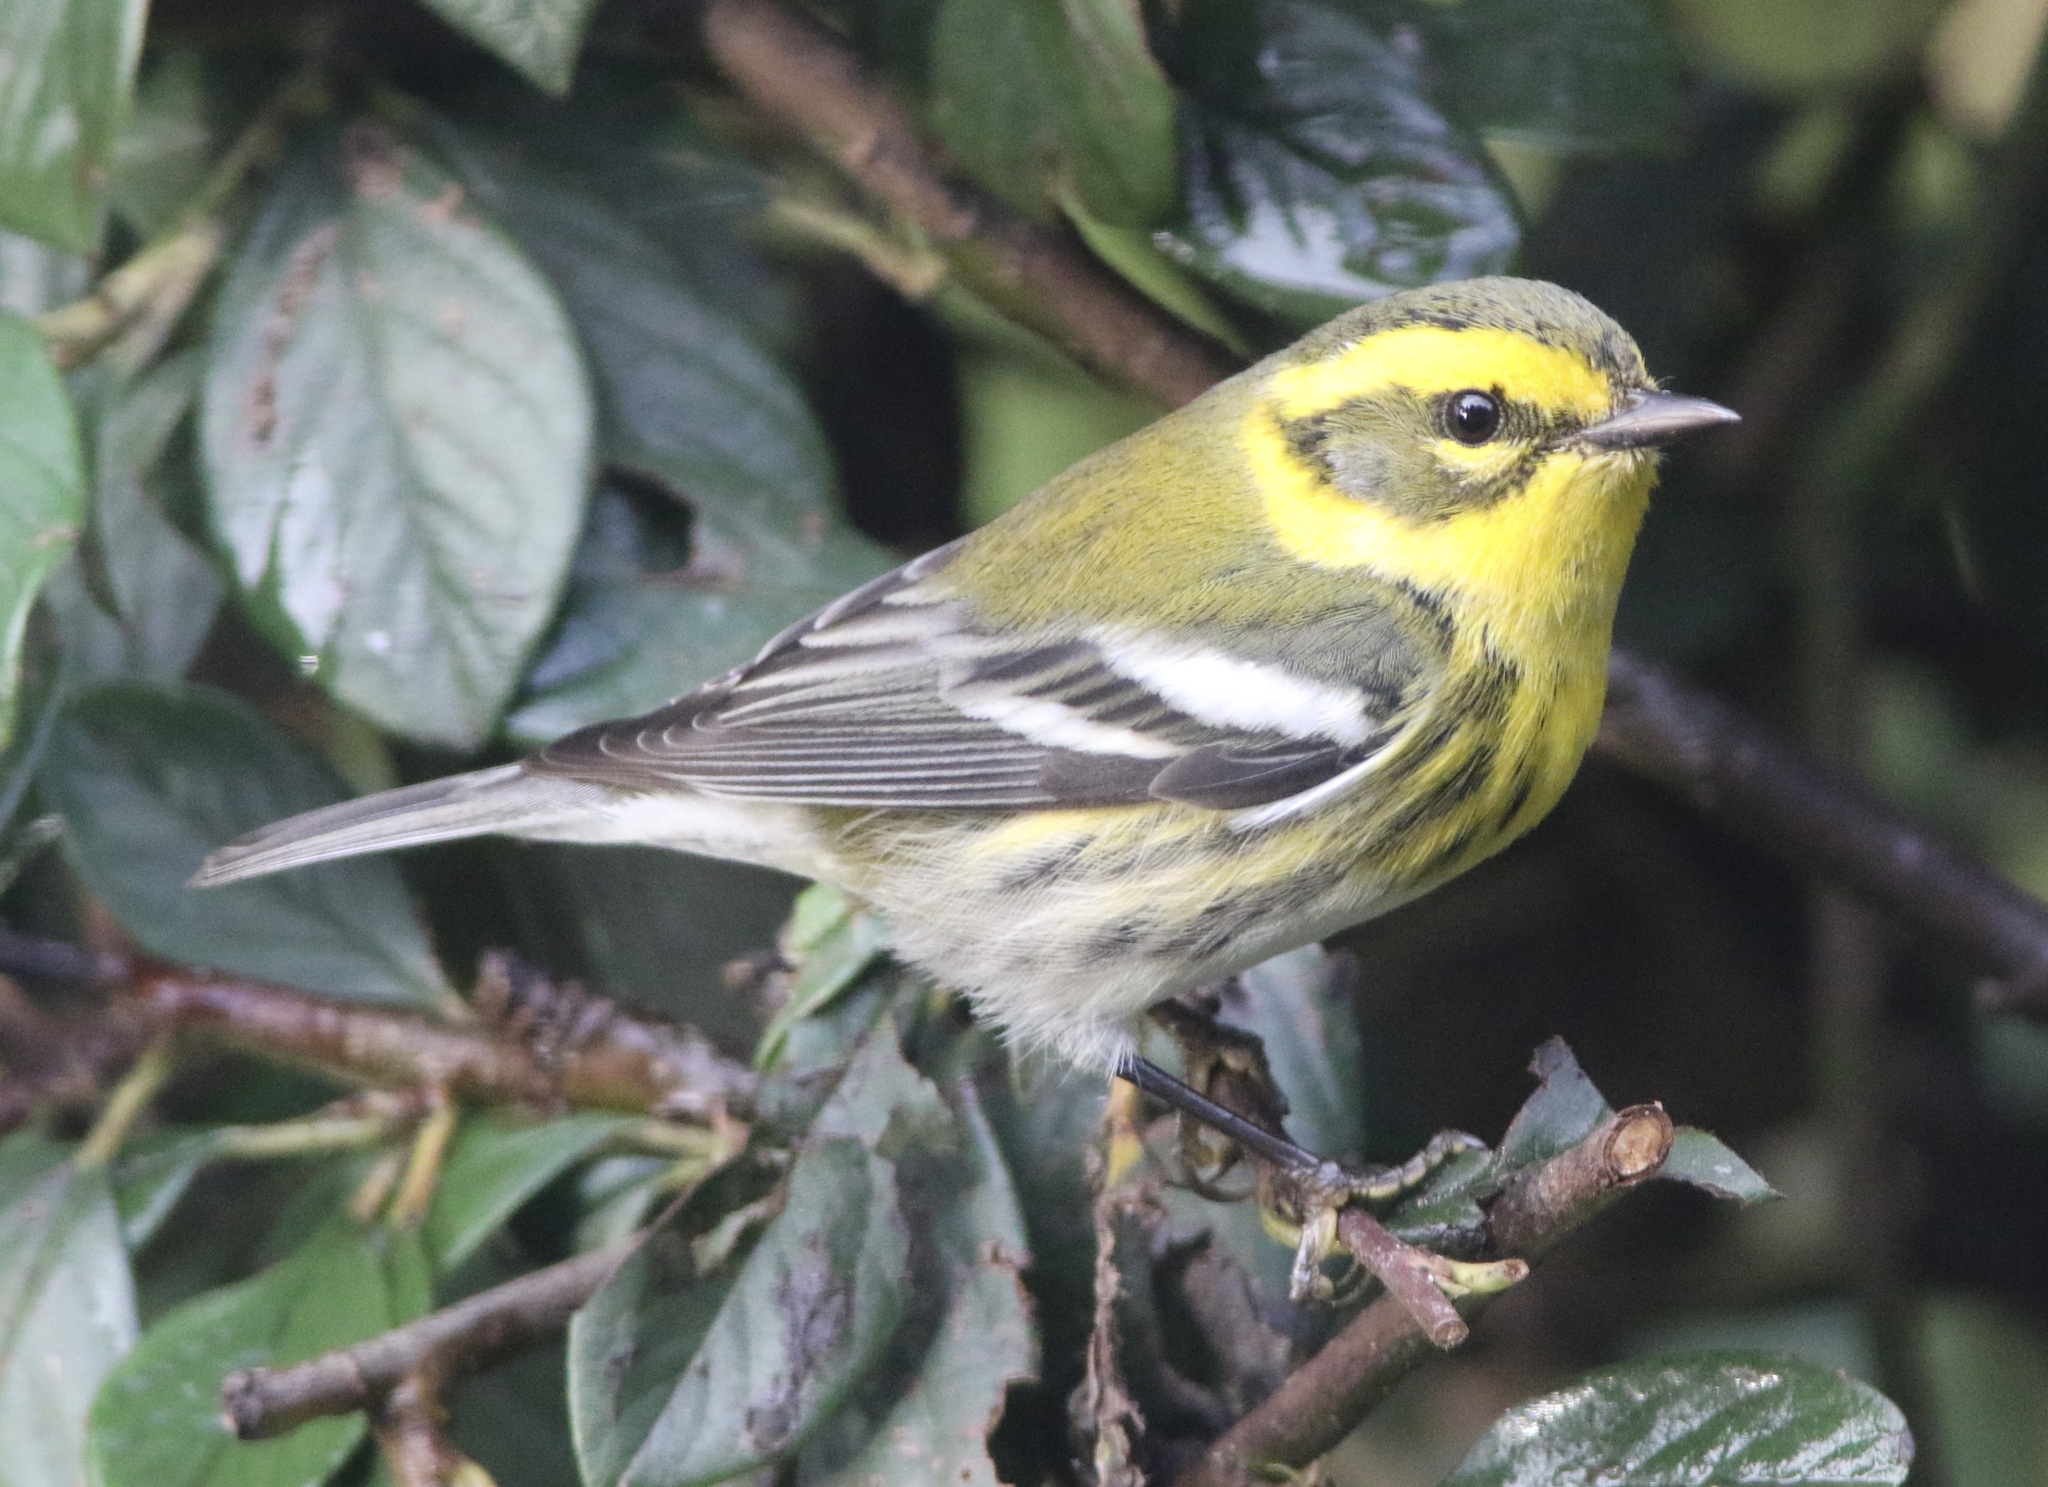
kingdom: Animalia
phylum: Chordata
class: Aves
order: Passeriformes
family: Parulidae
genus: Setophaga
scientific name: Setophaga townsendi
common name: Townsend's warbler
